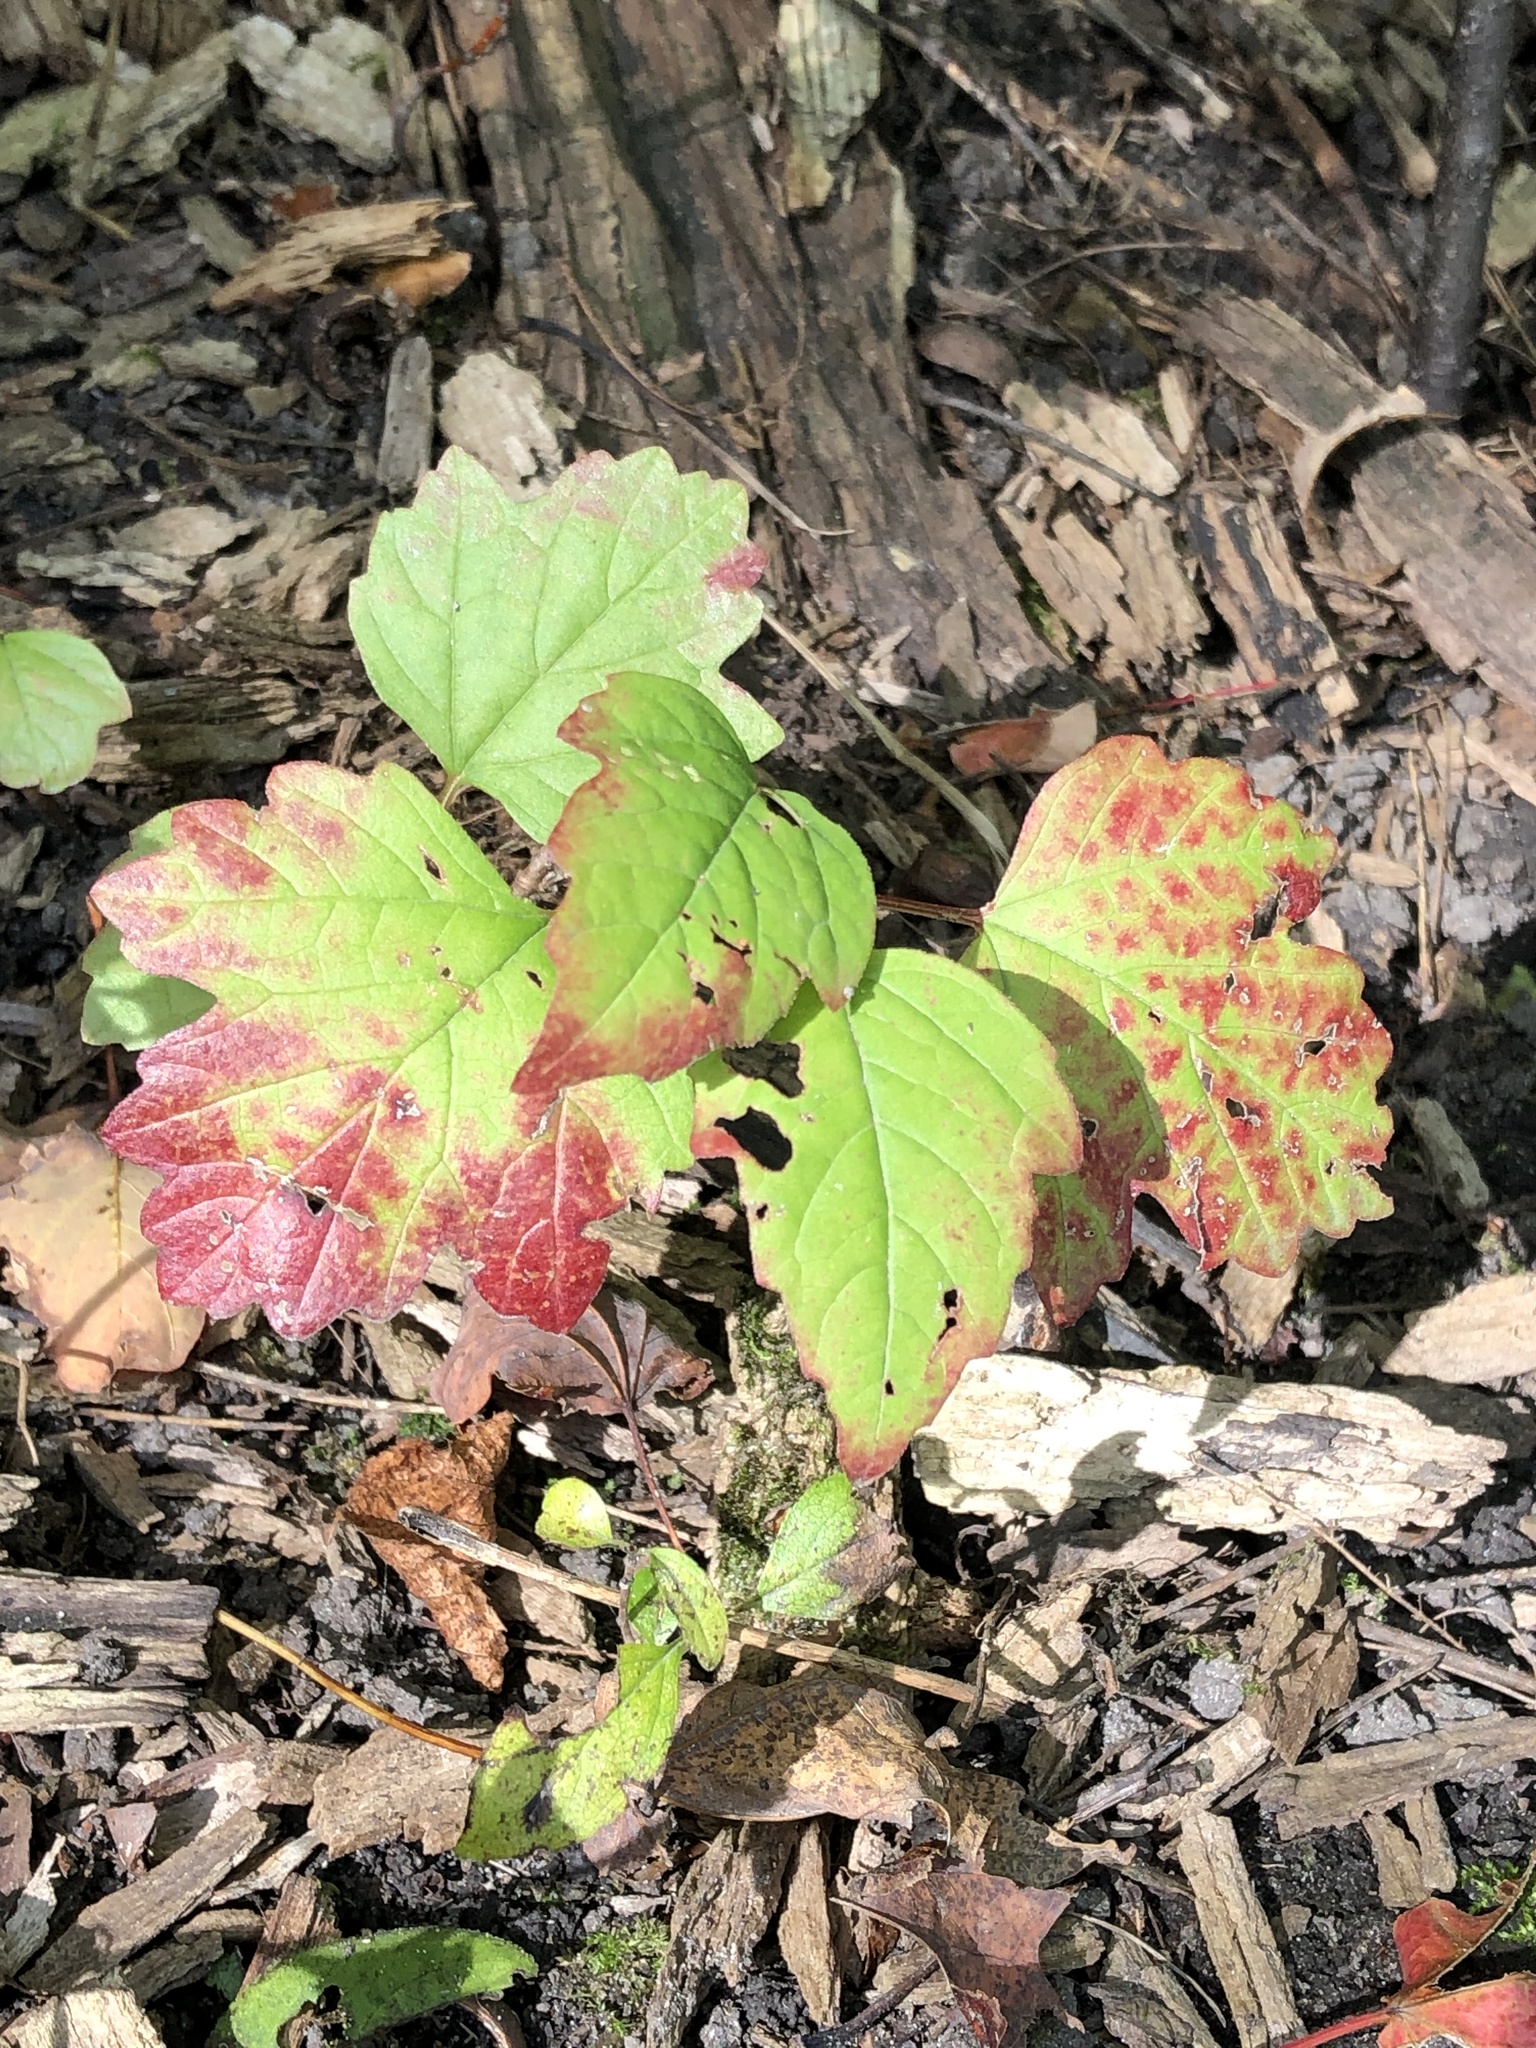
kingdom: Plantae
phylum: Tracheophyta
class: Magnoliopsida
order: Dipsacales
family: Viburnaceae
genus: Viburnum
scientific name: Viburnum opulus
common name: Guelder-rose
